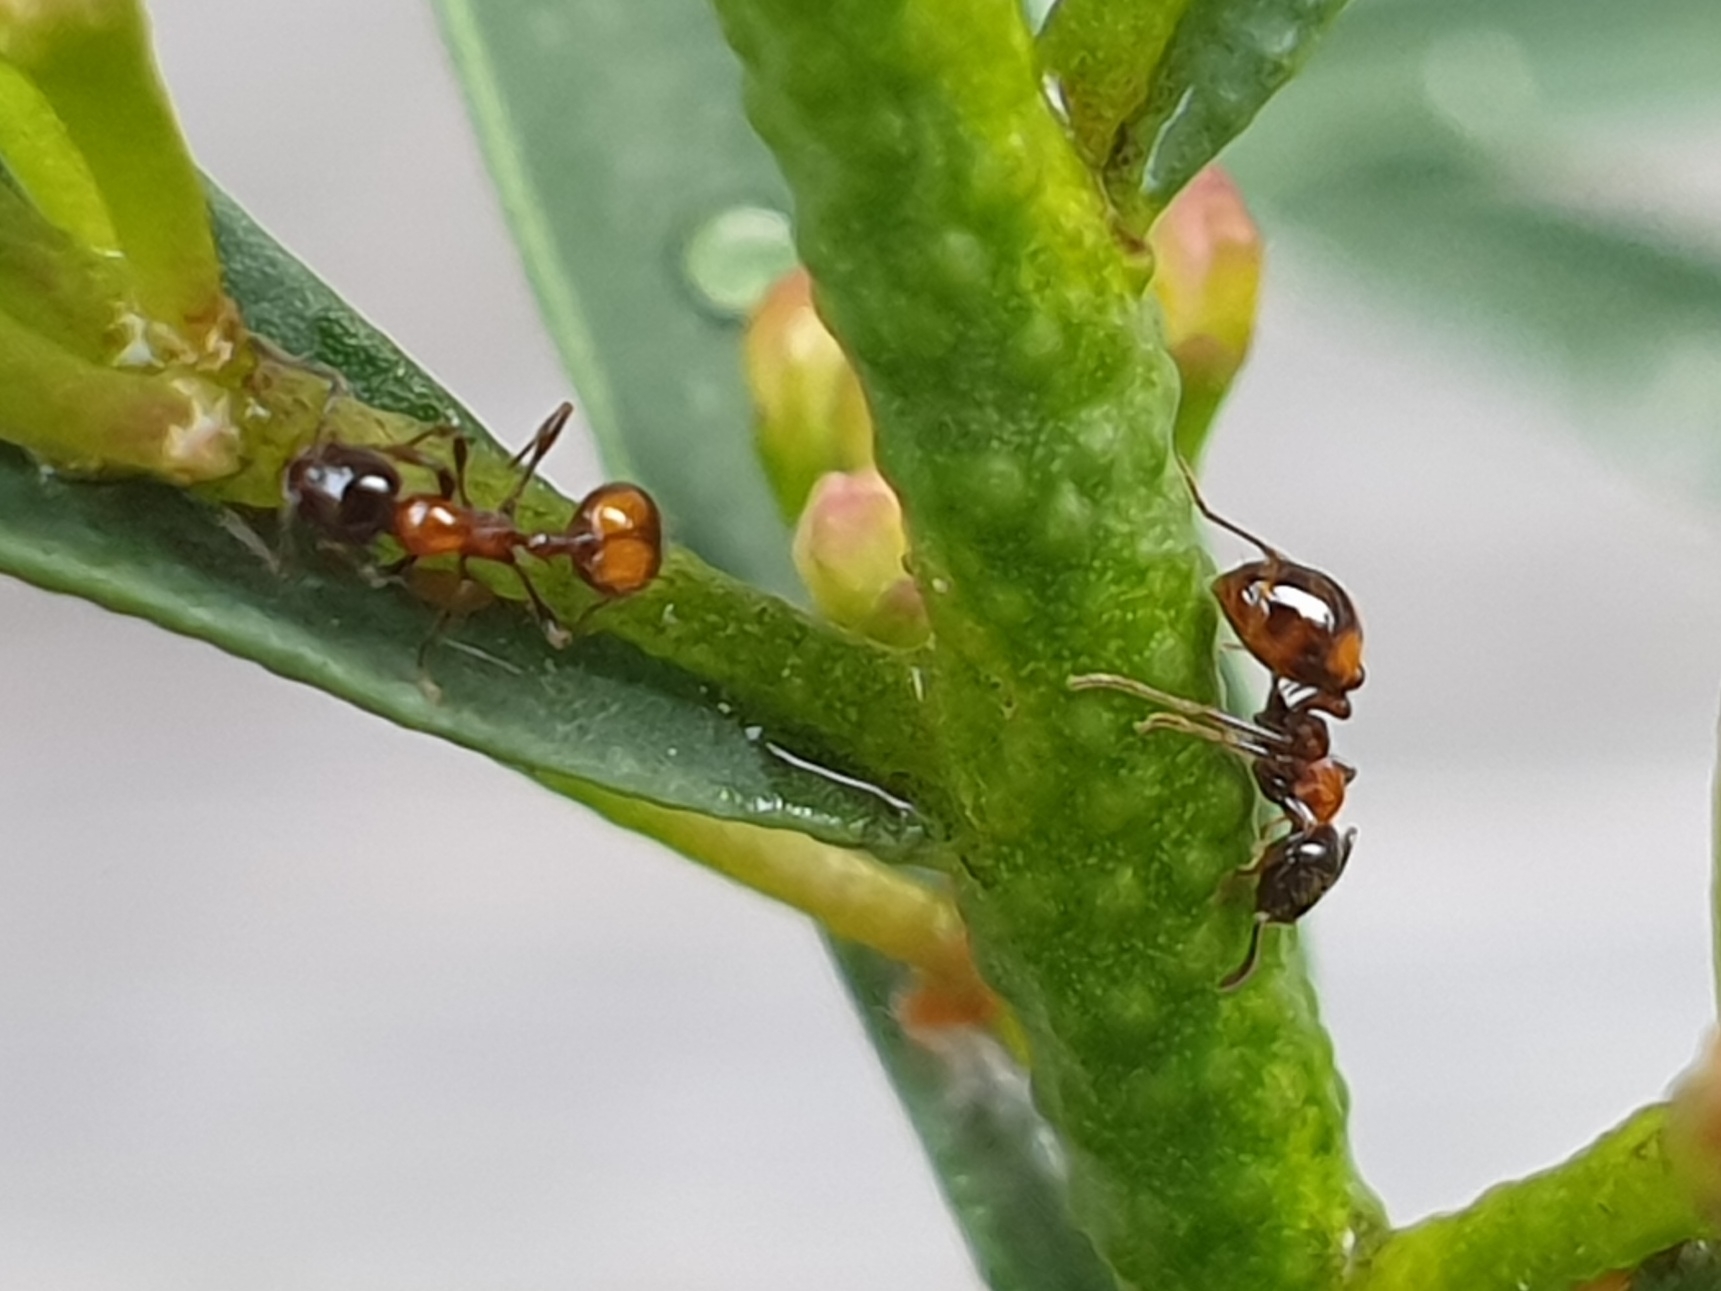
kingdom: Animalia
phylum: Arthropoda
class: Insecta
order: Hymenoptera
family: Formicidae
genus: Chelaner
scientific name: Chelaner
